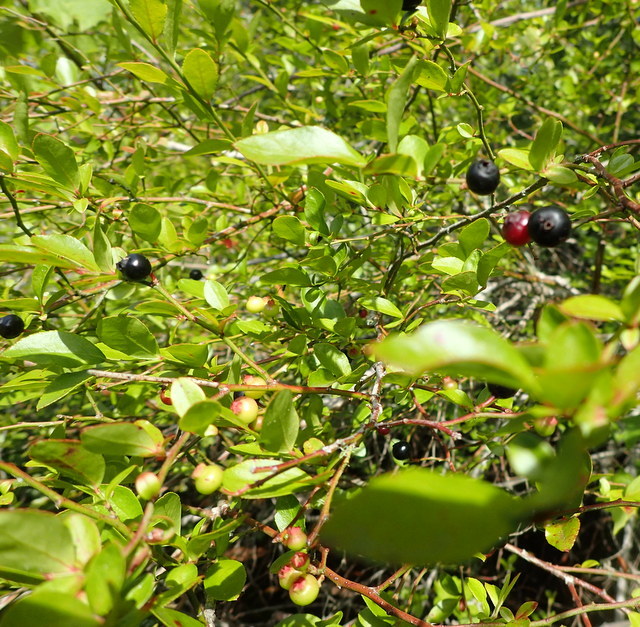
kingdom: Plantae
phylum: Tracheophyta
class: Magnoliopsida
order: Ericales
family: Ericaceae
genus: Vaccinium
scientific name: Vaccinium corymbosum
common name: Blueberry
